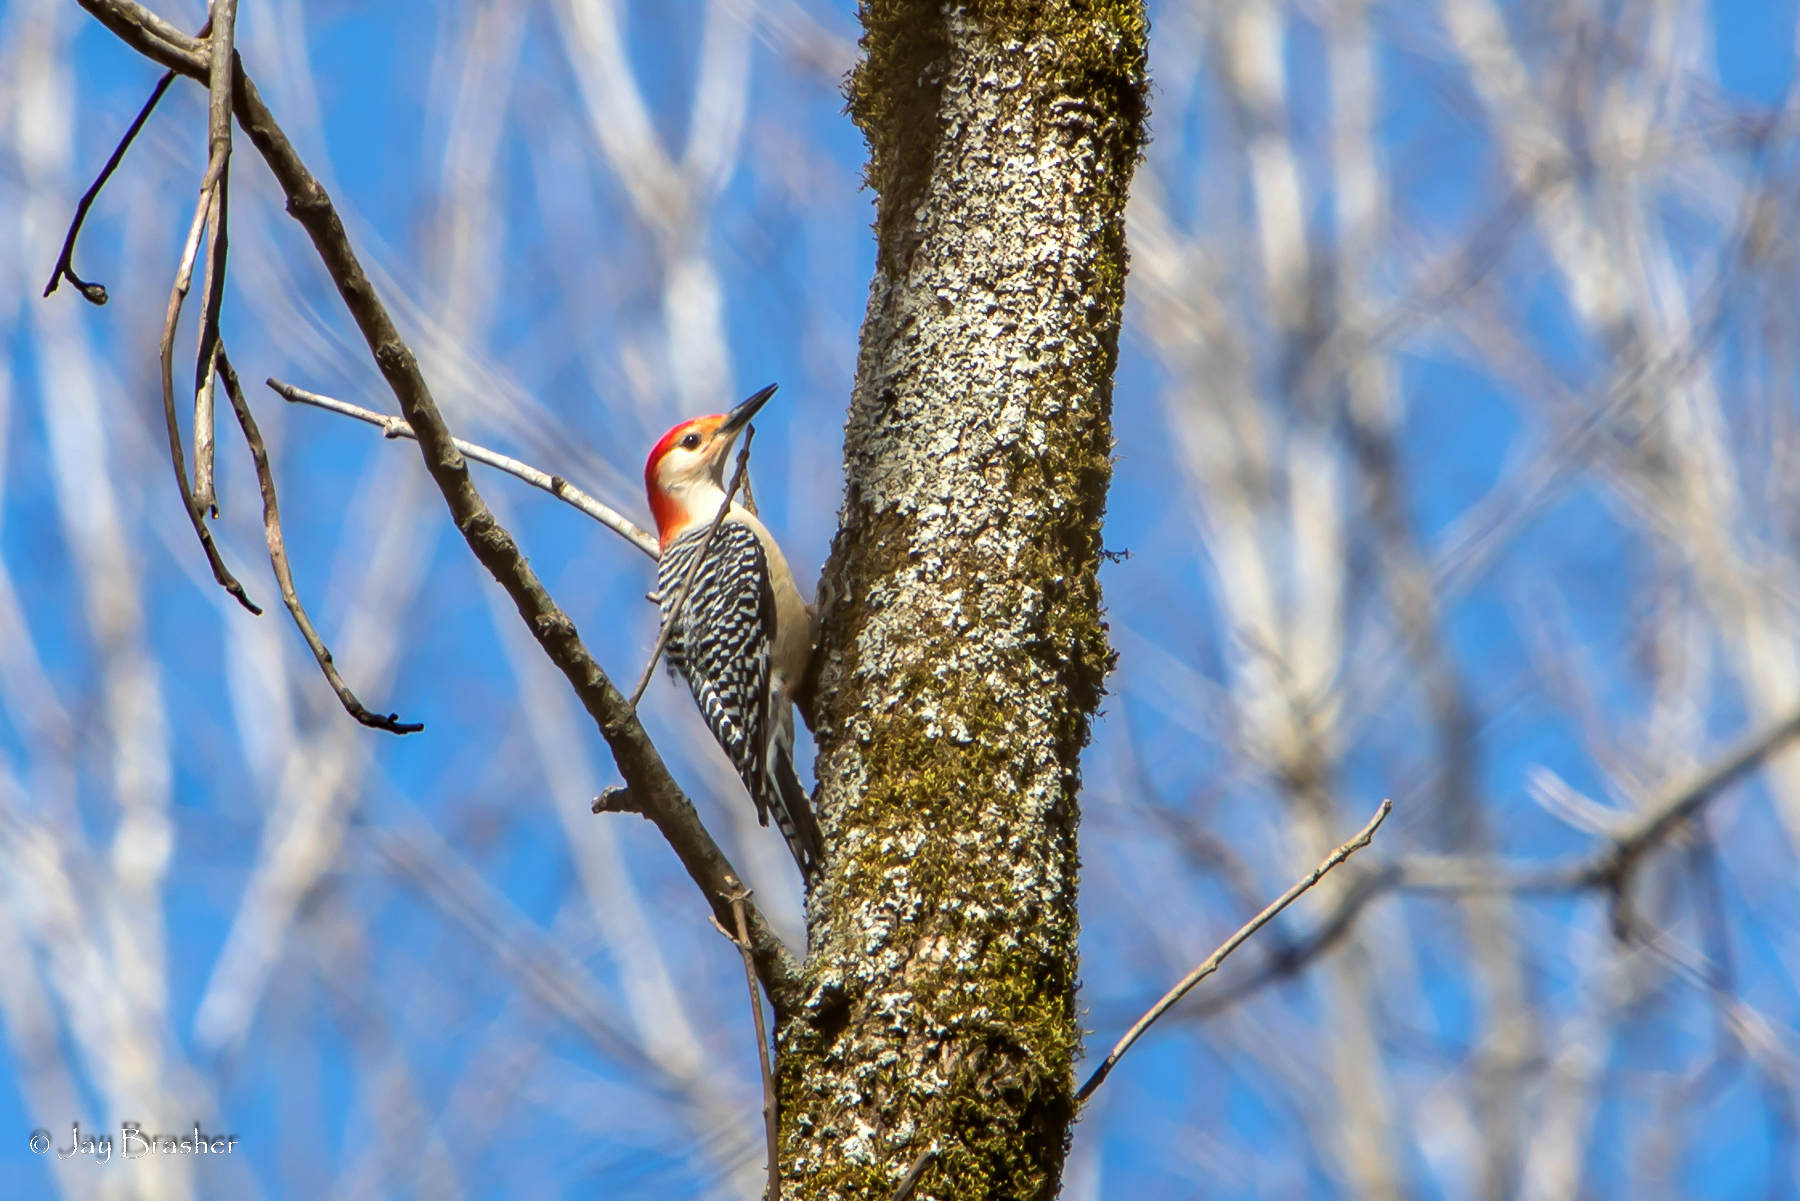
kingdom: Animalia
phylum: Chordata
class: Aves
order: Piciformes
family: Picidae
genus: Melanerpes
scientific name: Melanerpes carolinus
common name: Red-bellied woodpecker
